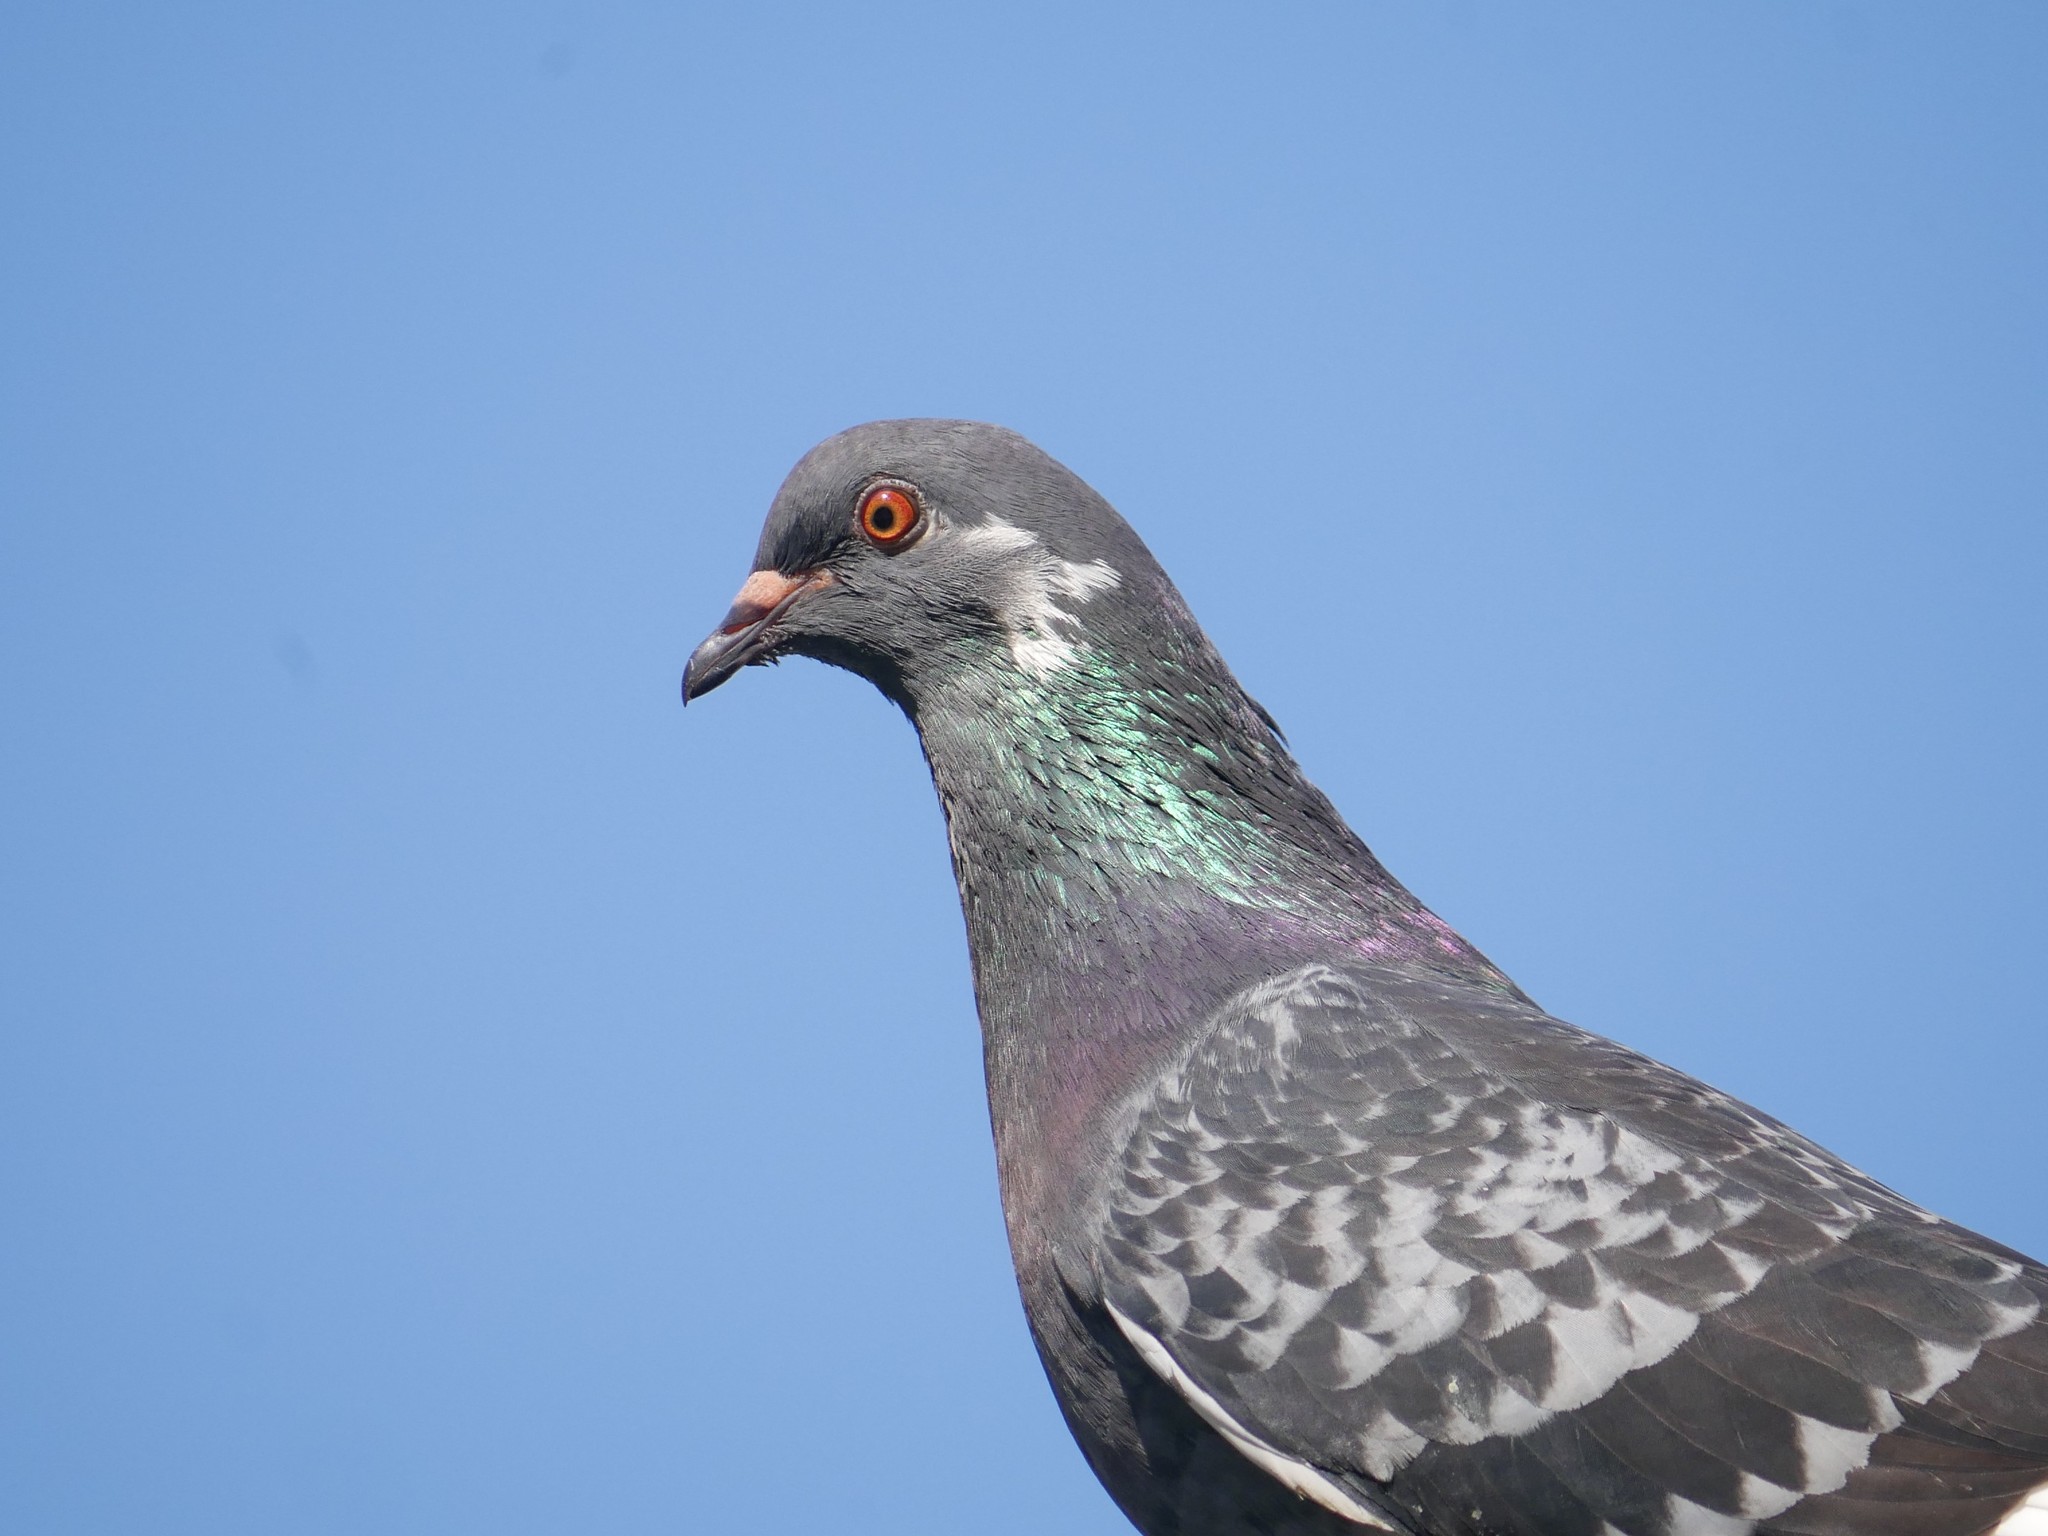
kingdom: Animalia
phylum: Chordata
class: Aves
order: Columbiformes
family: Columbidae
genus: Columba
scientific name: Columba livia
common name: Rock pigeon
